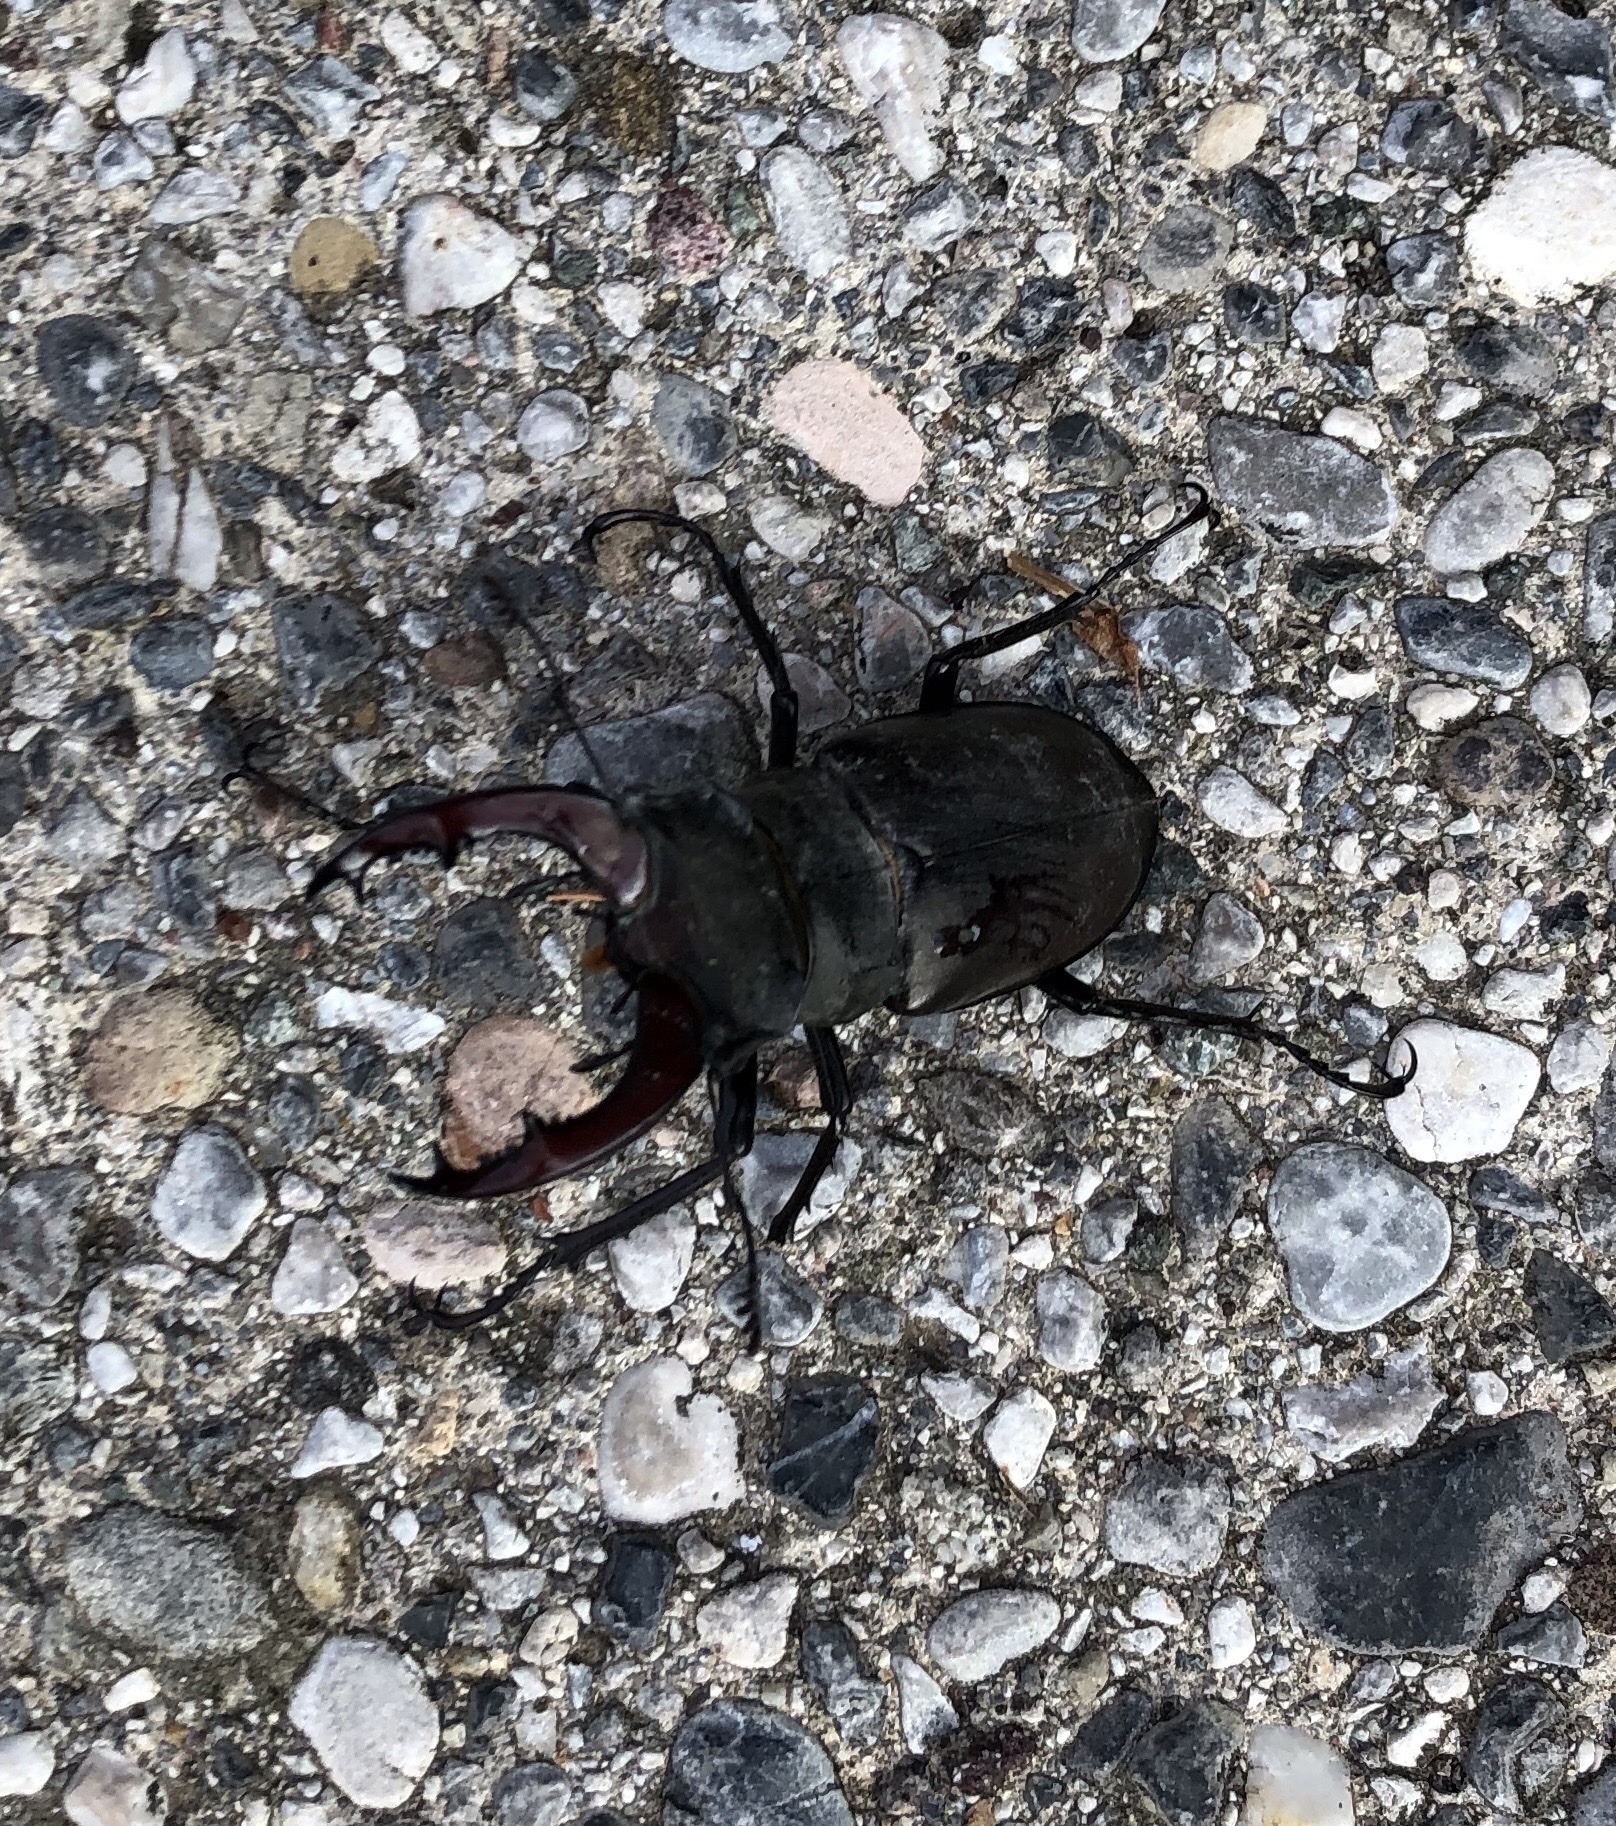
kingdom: Animalia
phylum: Arthropoda
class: Insecta
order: Coleoptera
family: Lucanidae
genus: Lucanus
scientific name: Lucanus cervus
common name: Stag beetle
